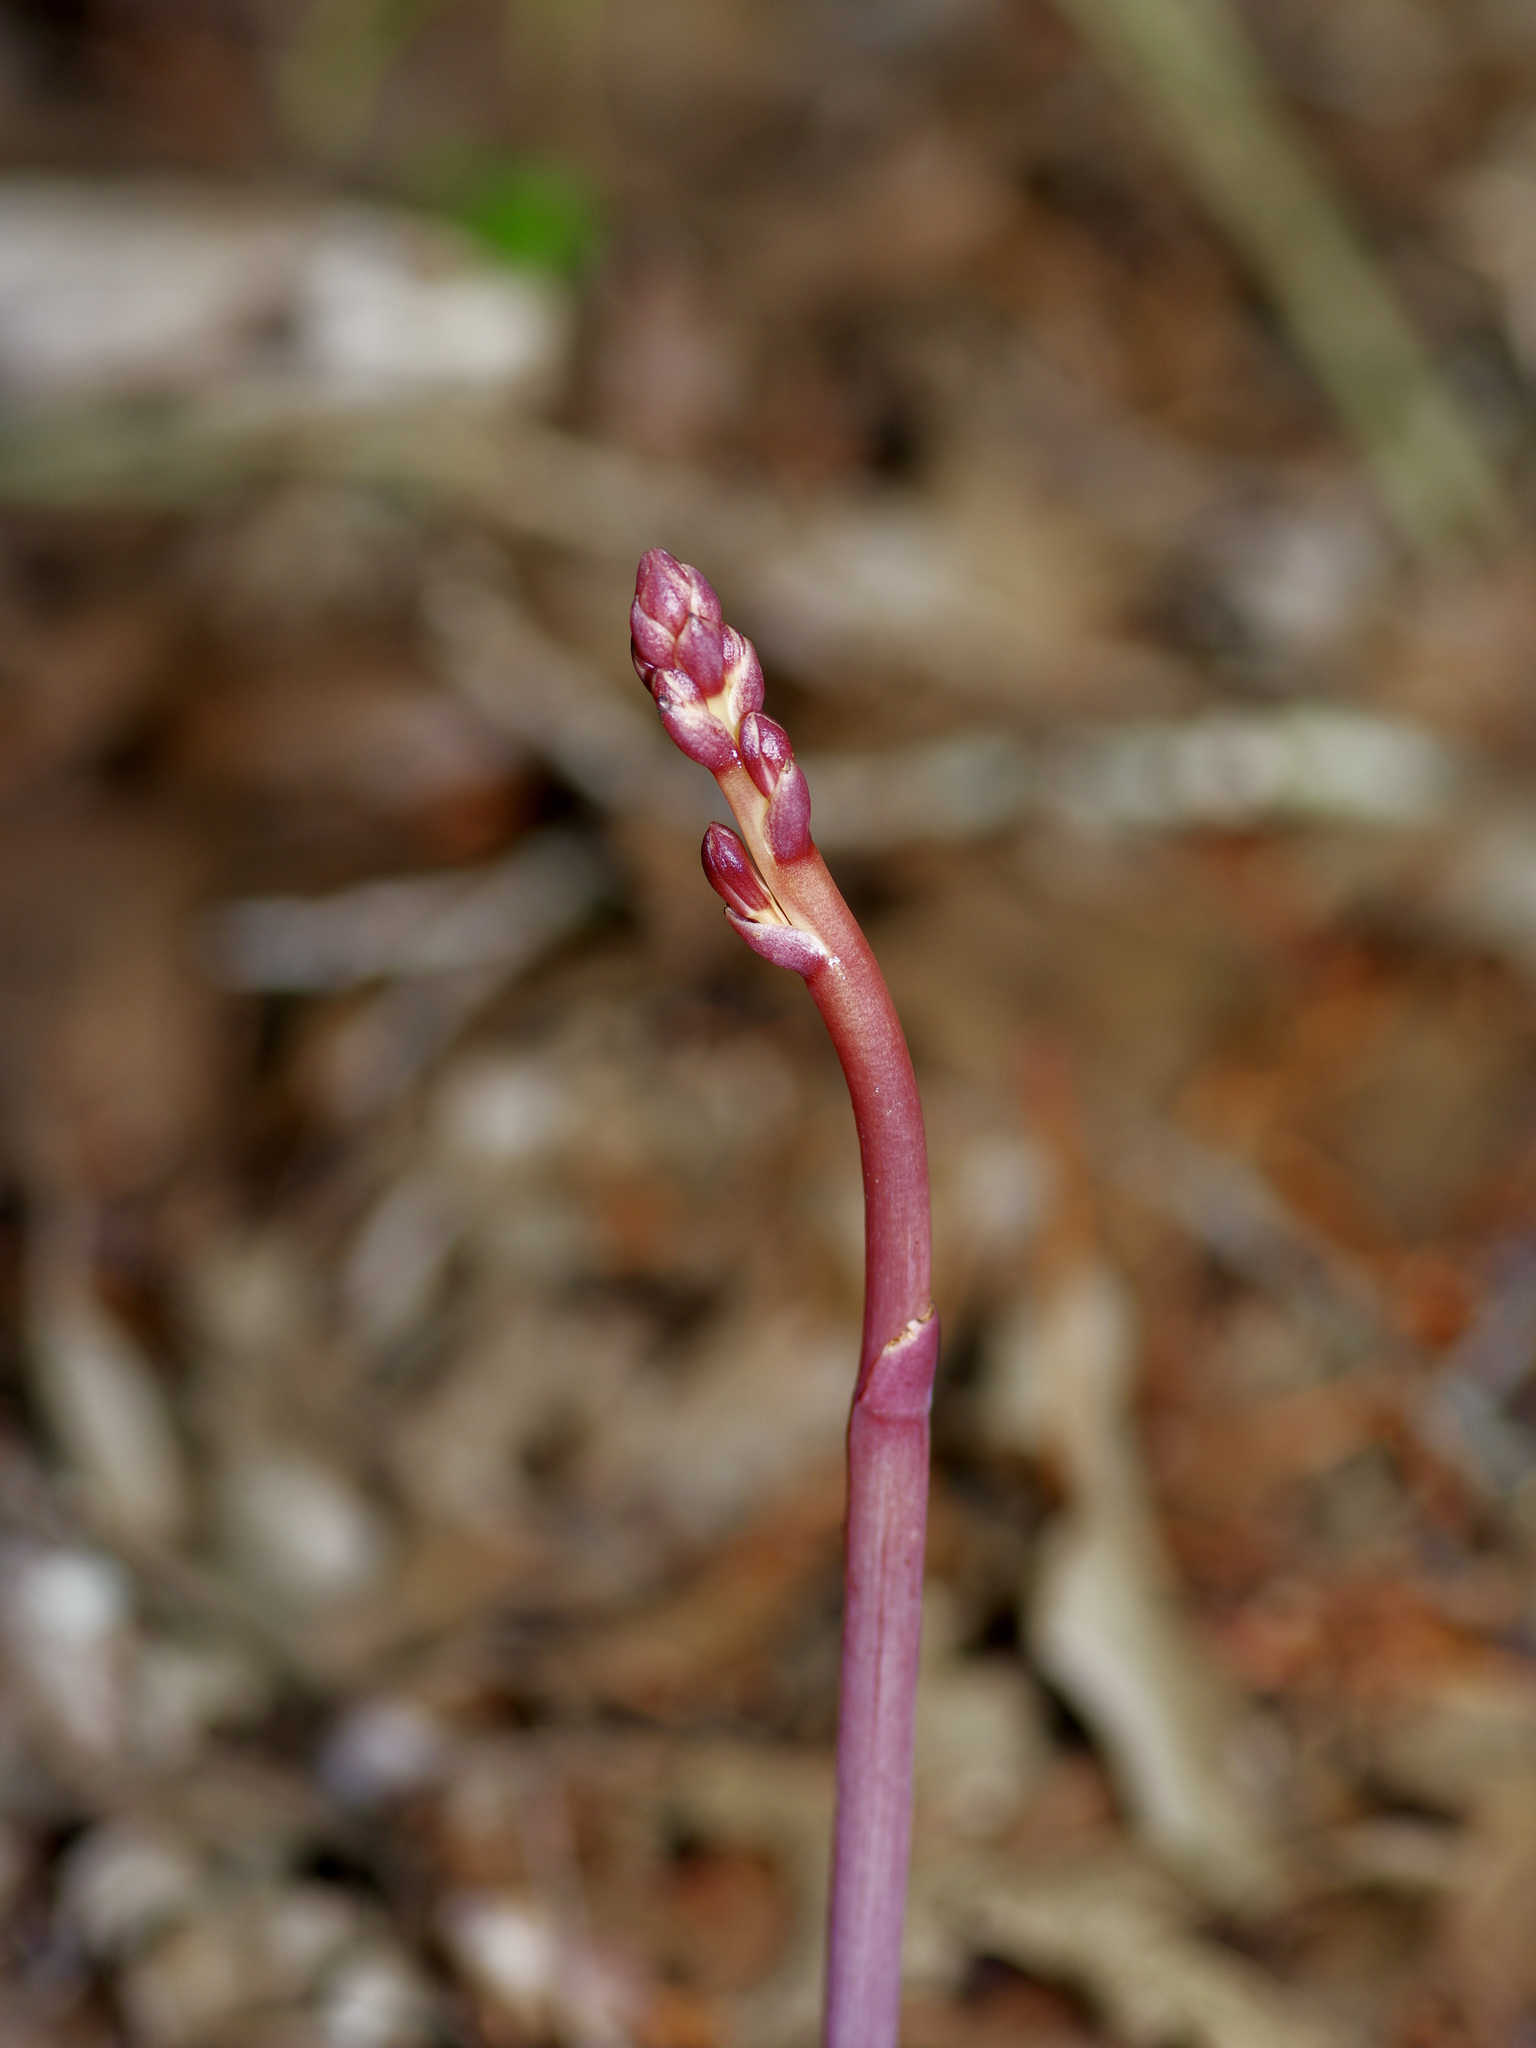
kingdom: Plantae
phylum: Tracheophyta
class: Liliopsida
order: Asparagales
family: Orchidaceae
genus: Bletia
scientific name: Bletia nitida
